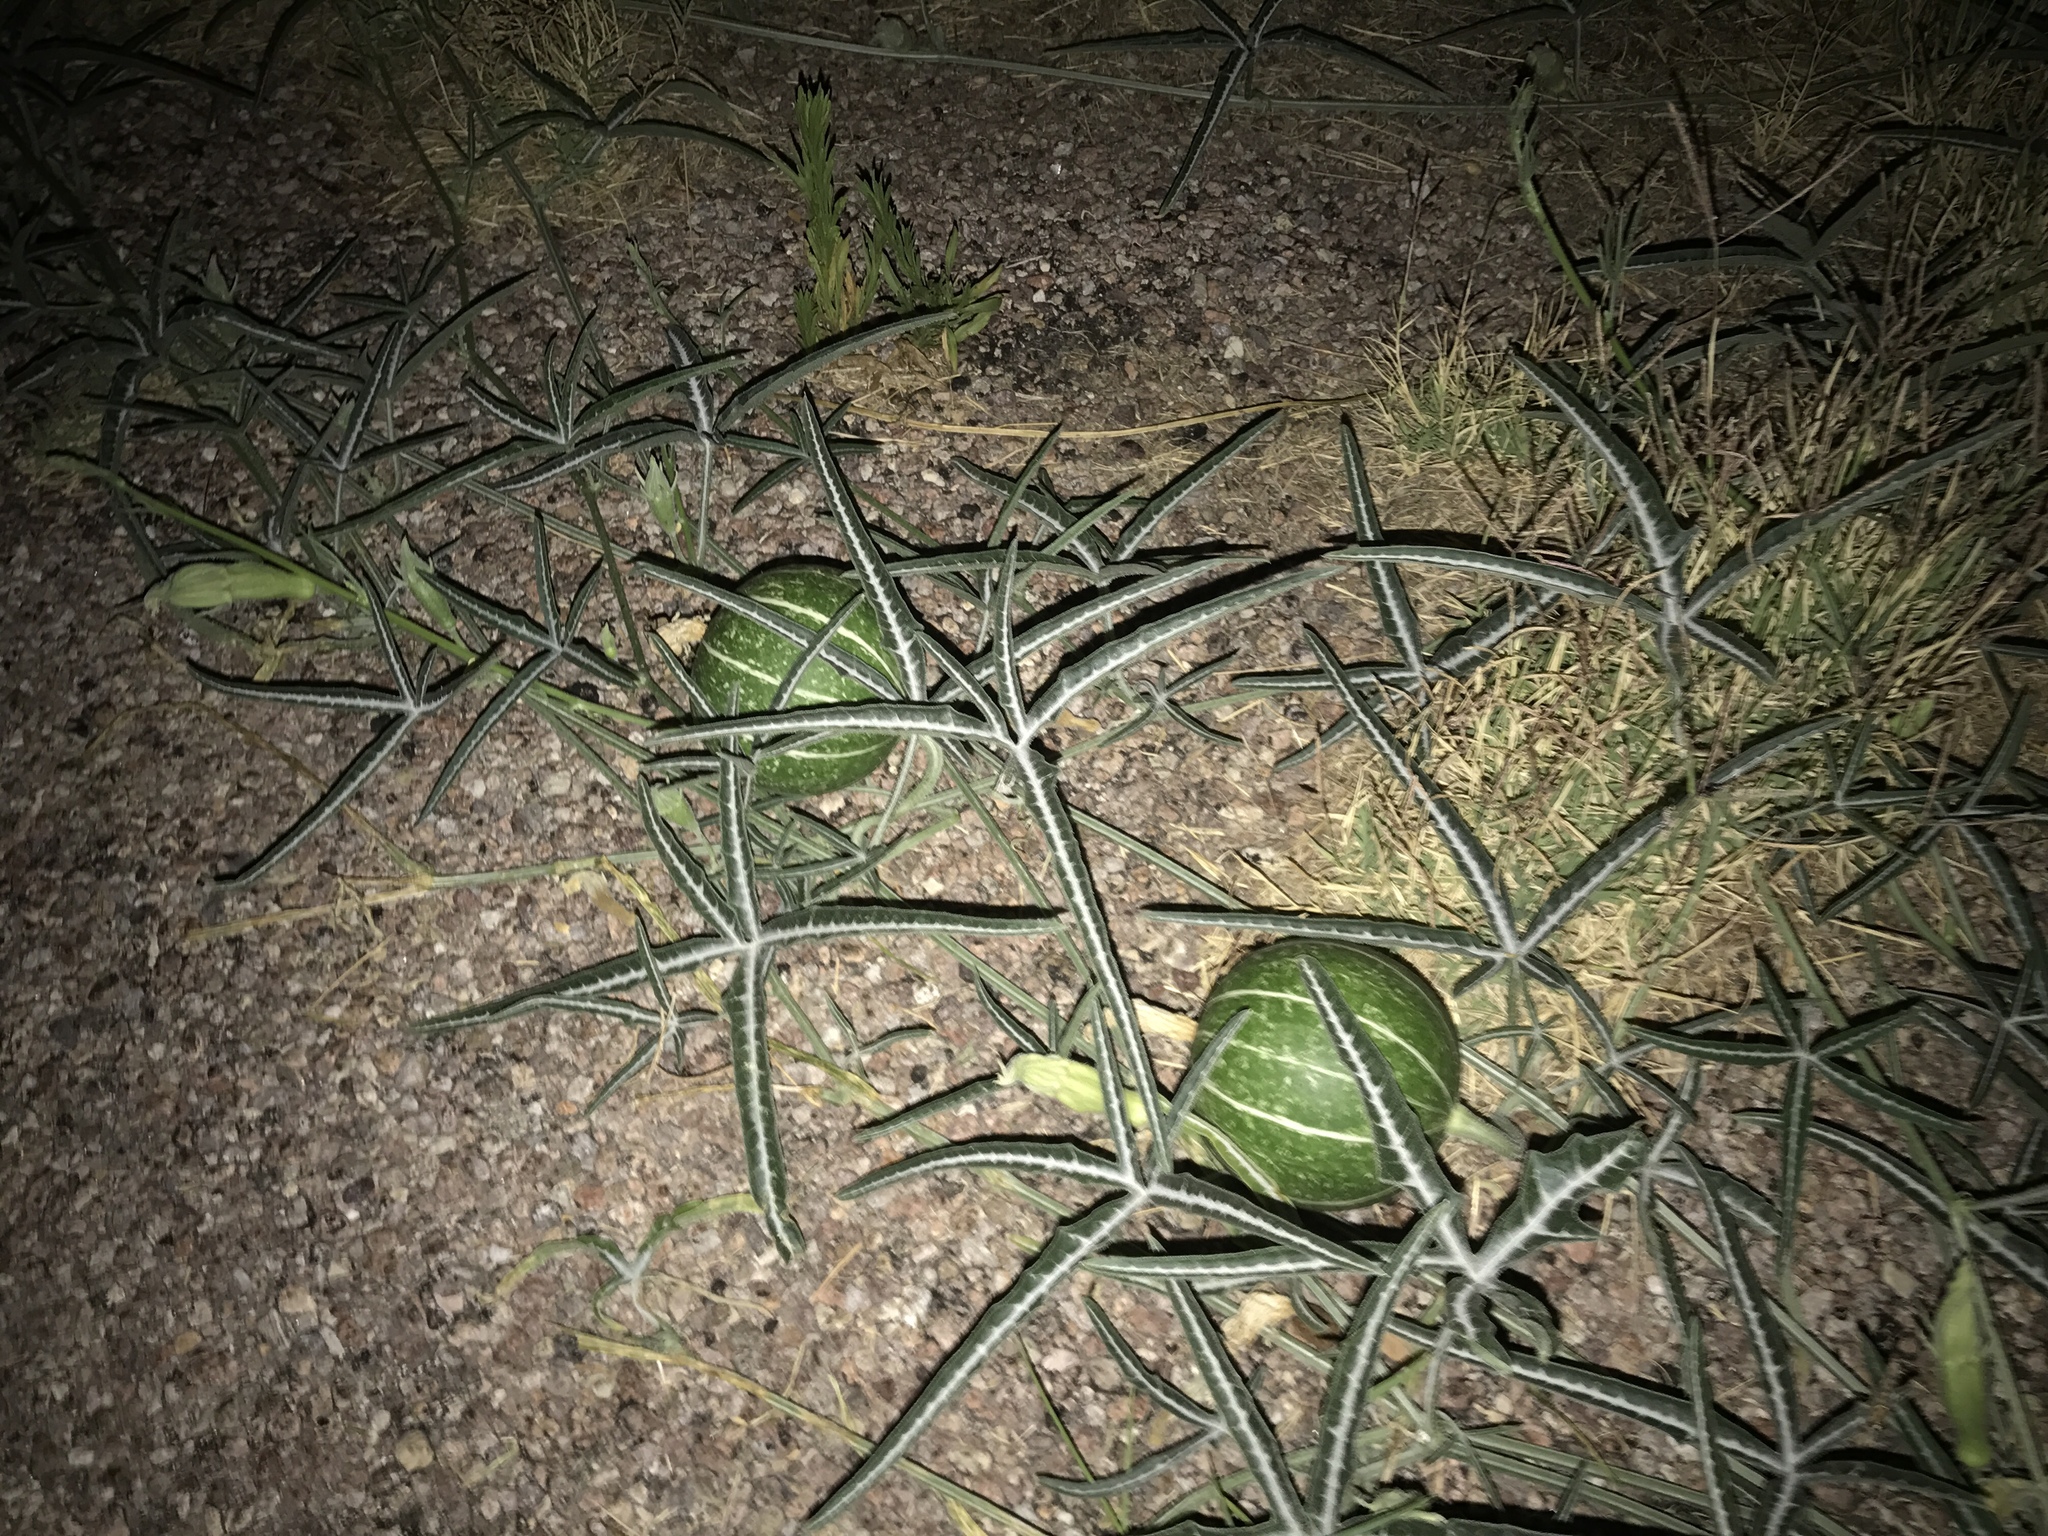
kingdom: Plantae
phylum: Tracheophyta
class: Magnoliopsida
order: Cucurbitales
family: Cucurbitaceae
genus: Cucurbita
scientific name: Cucurbita digitata
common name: Finger-leaf gourd
